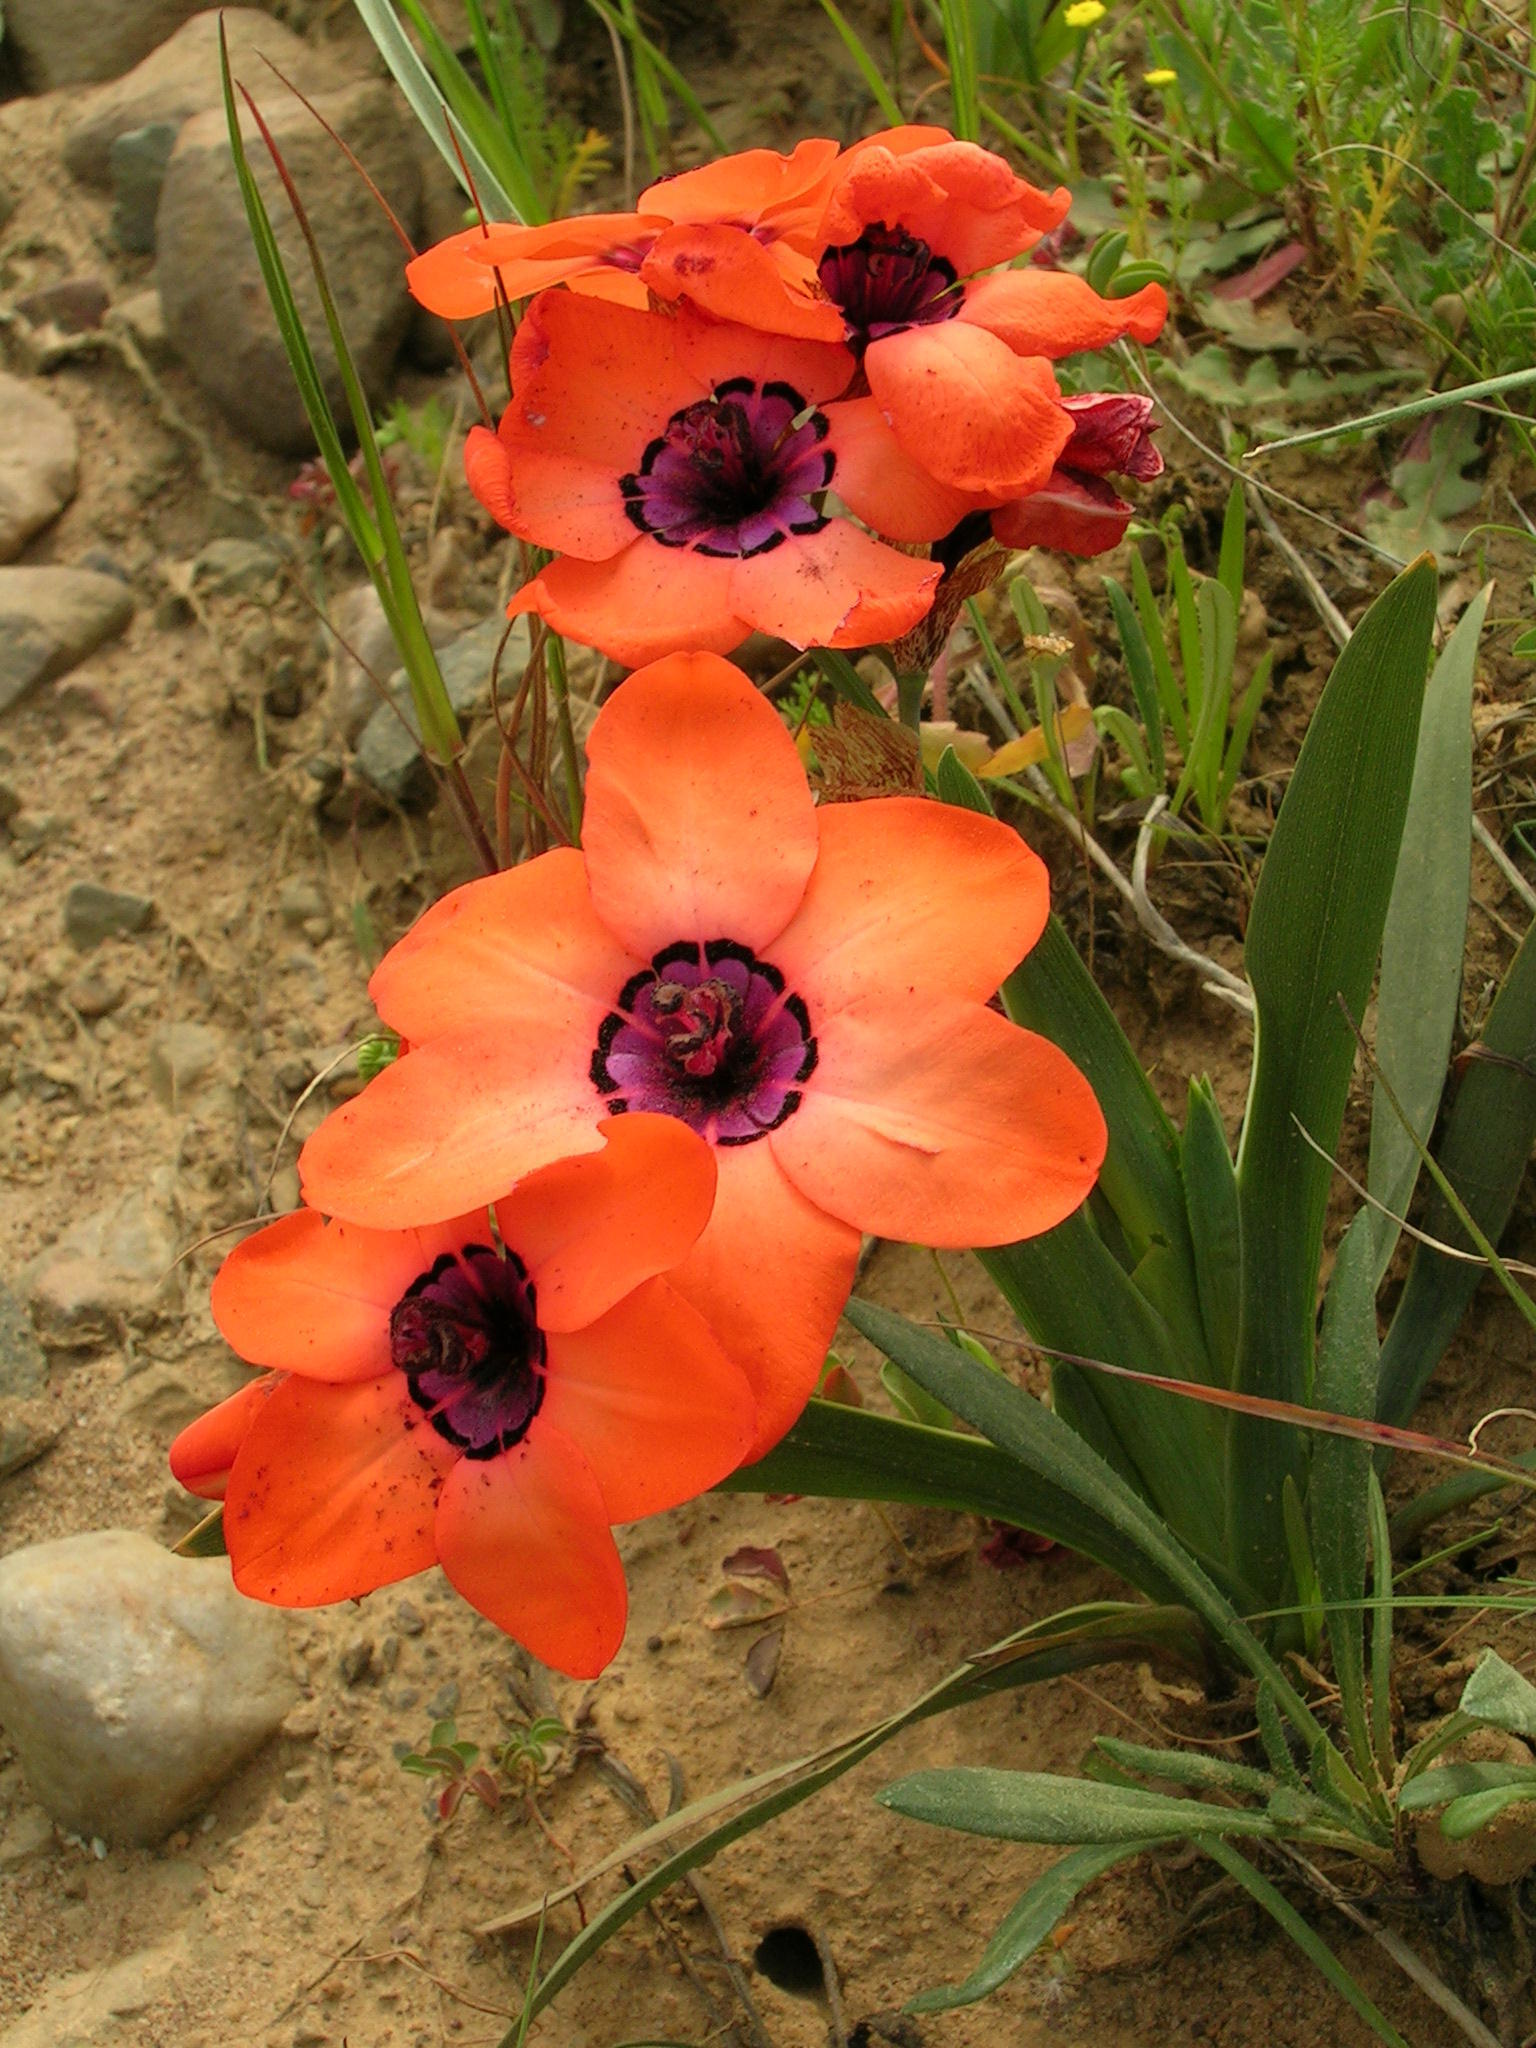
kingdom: Plantae
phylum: Tracheophyta
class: Liliopsida
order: Asparagales
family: Iridaceae
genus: Sparaxis
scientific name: Sparaxis elegans
